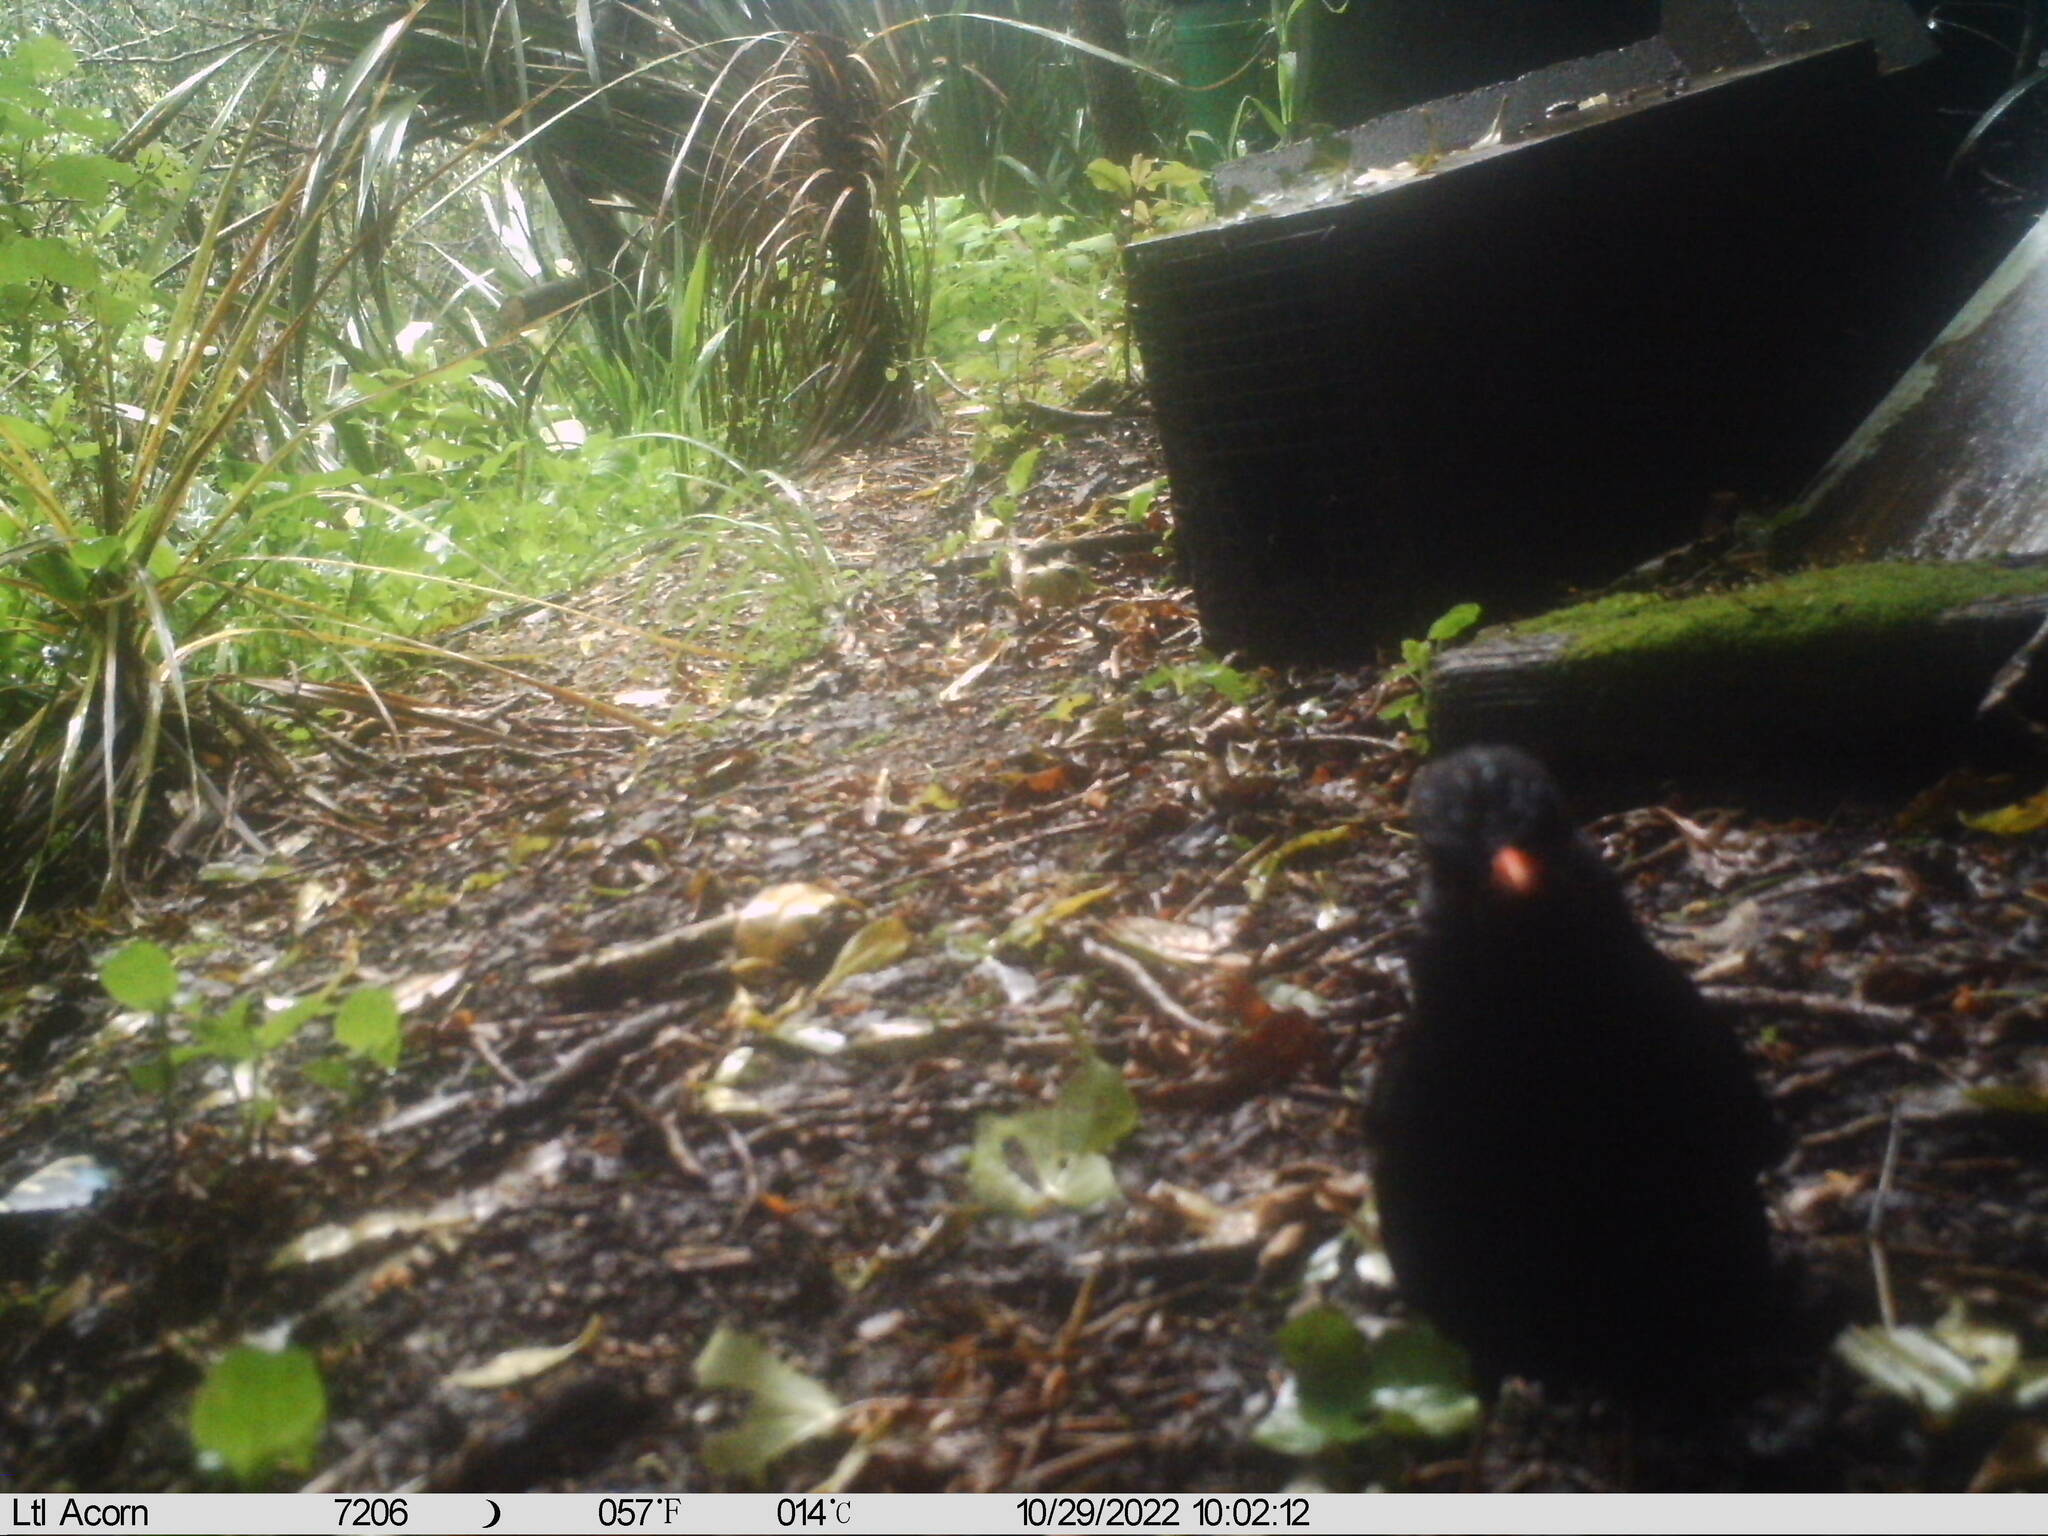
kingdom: Animalia
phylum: Chordata
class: Aves
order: Passeriformes
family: Turdidae
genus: Turdus
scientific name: Turdus merula
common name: Common blackbird
